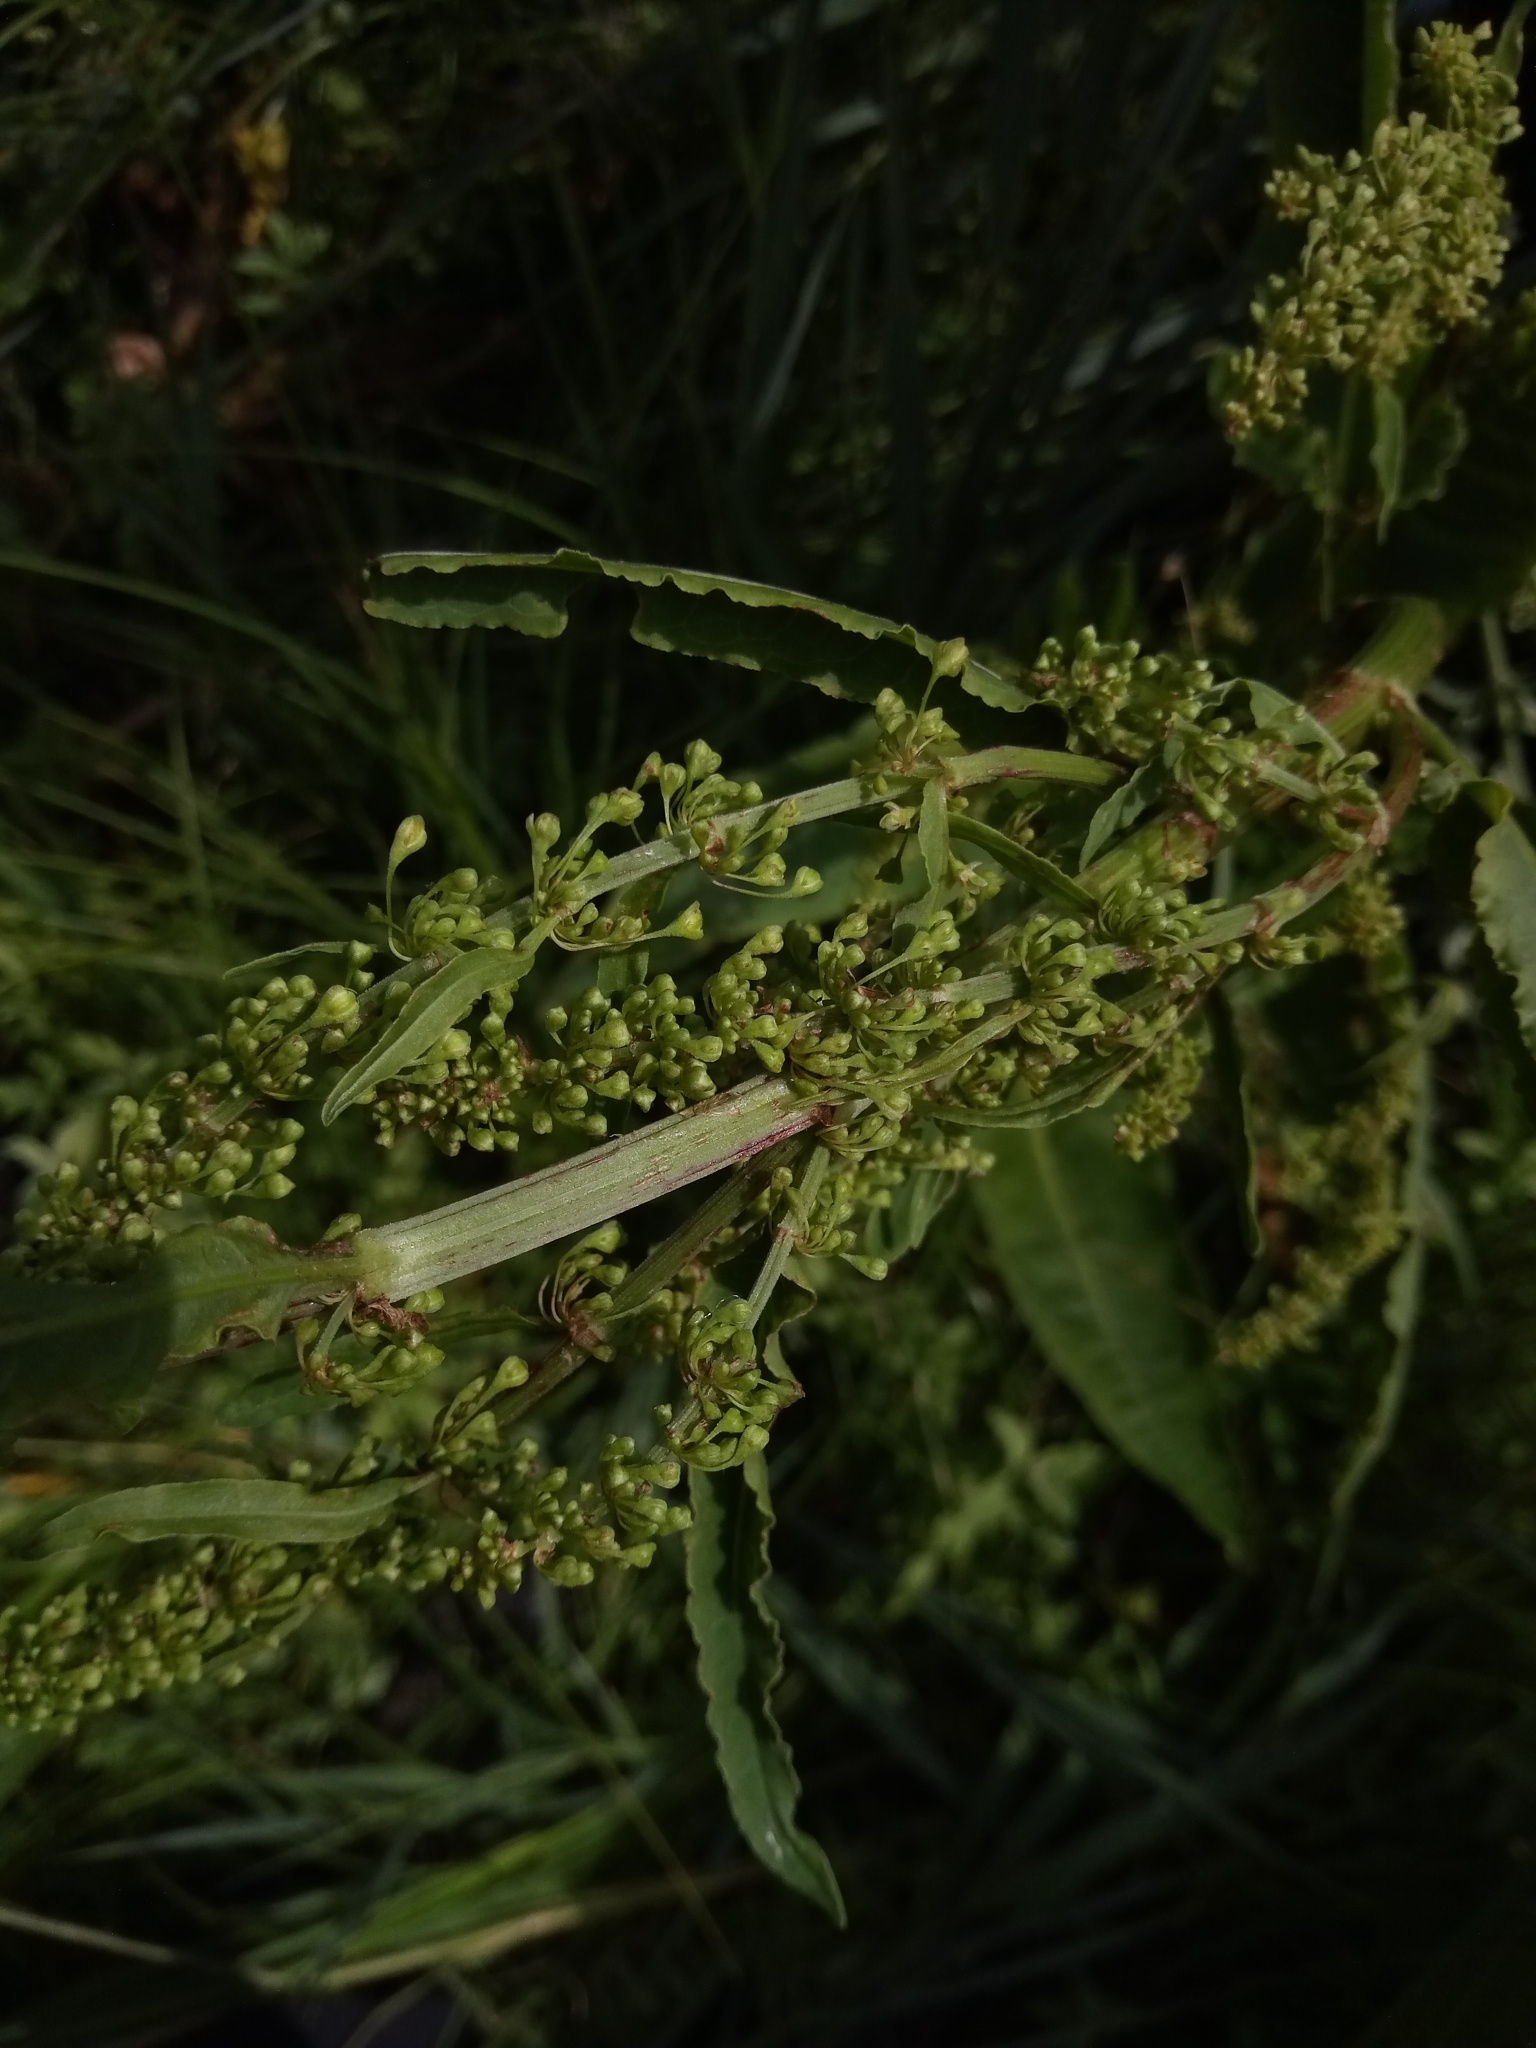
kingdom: Plantae
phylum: Tracheophyta
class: Magnoliopsida
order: Caryophyllales
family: Polygonaceae
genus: Rumex
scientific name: Rumex aquaticus
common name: Scottish dock
